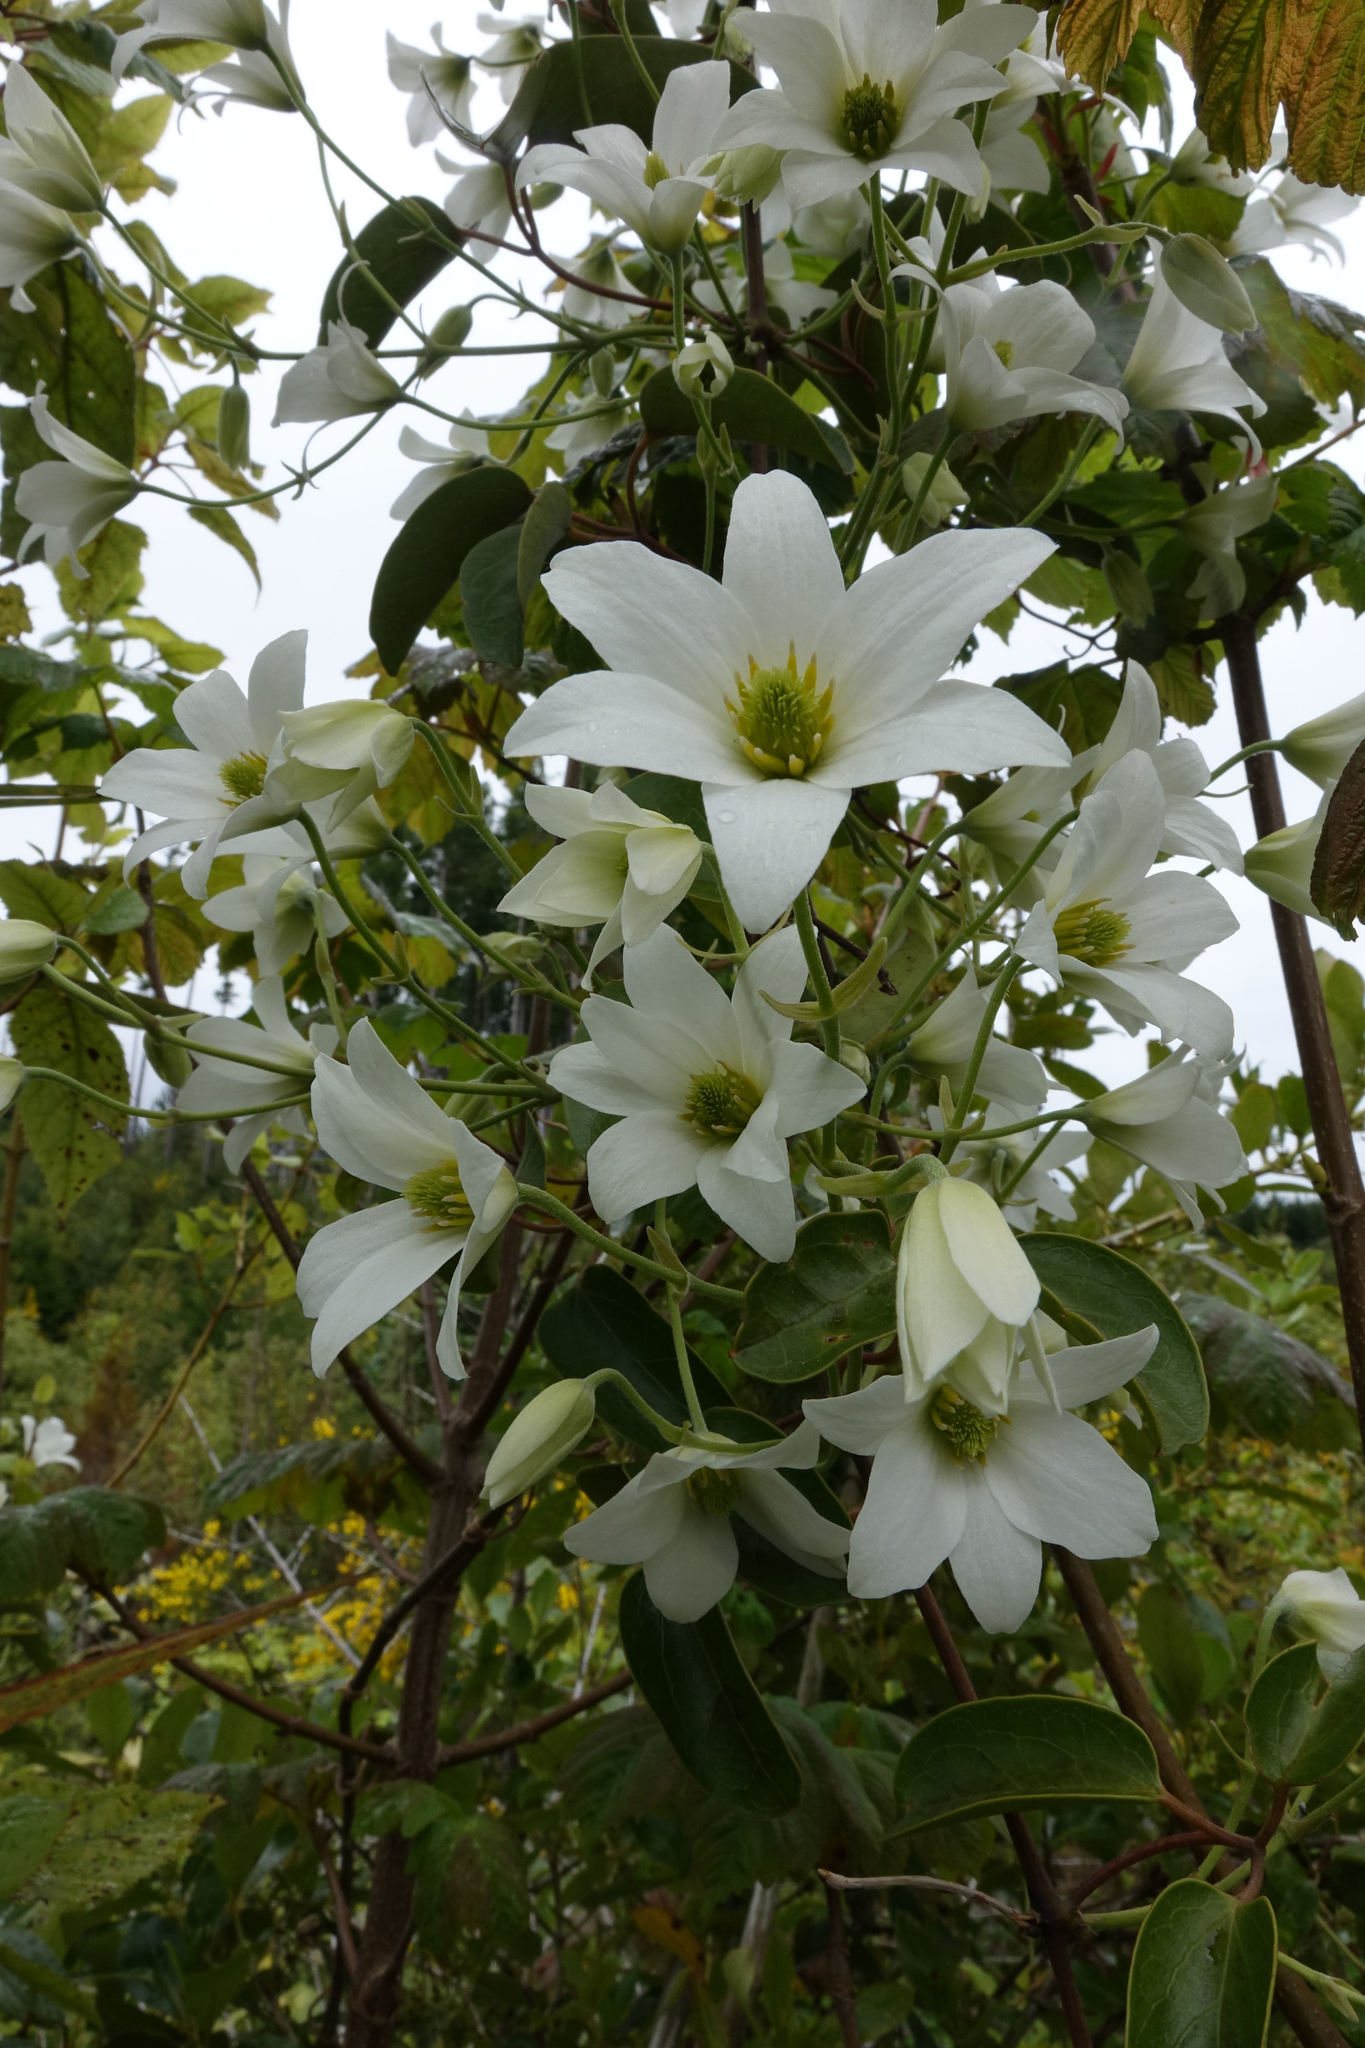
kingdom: Plantae
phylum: Tracheophyta
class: Magnoliopsida
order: Ranunculales
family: Ranunculaceae
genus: Clematis
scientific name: Clematis paniculata
